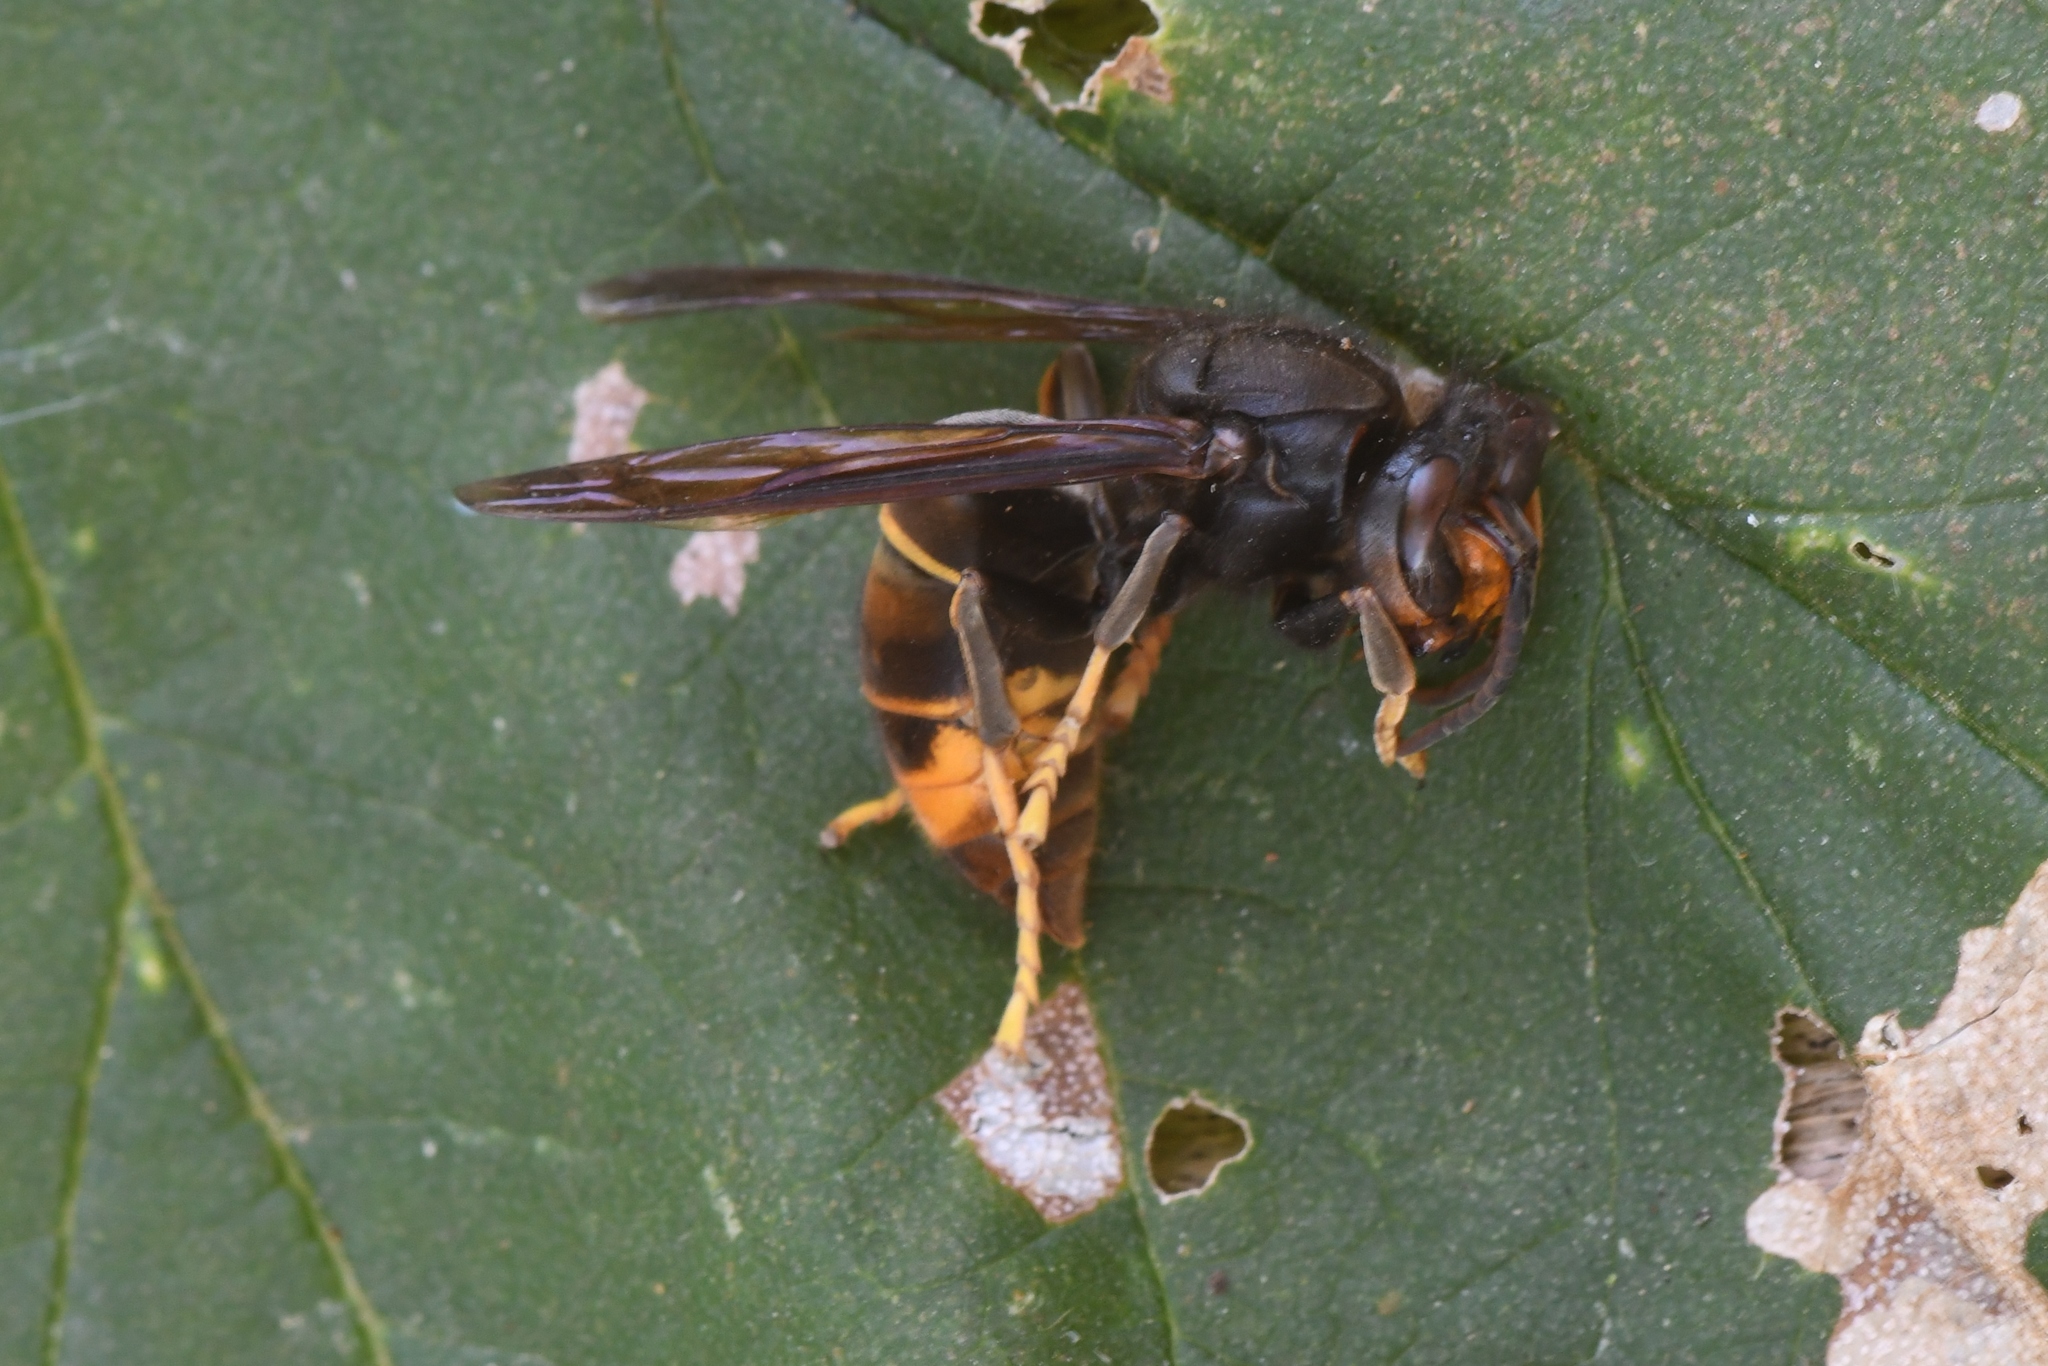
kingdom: Animalia
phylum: Arthropoda
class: Insecta
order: Hymenoptera
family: Vespidae
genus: Vespa
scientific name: Vespa velutina
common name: Asian hornet
